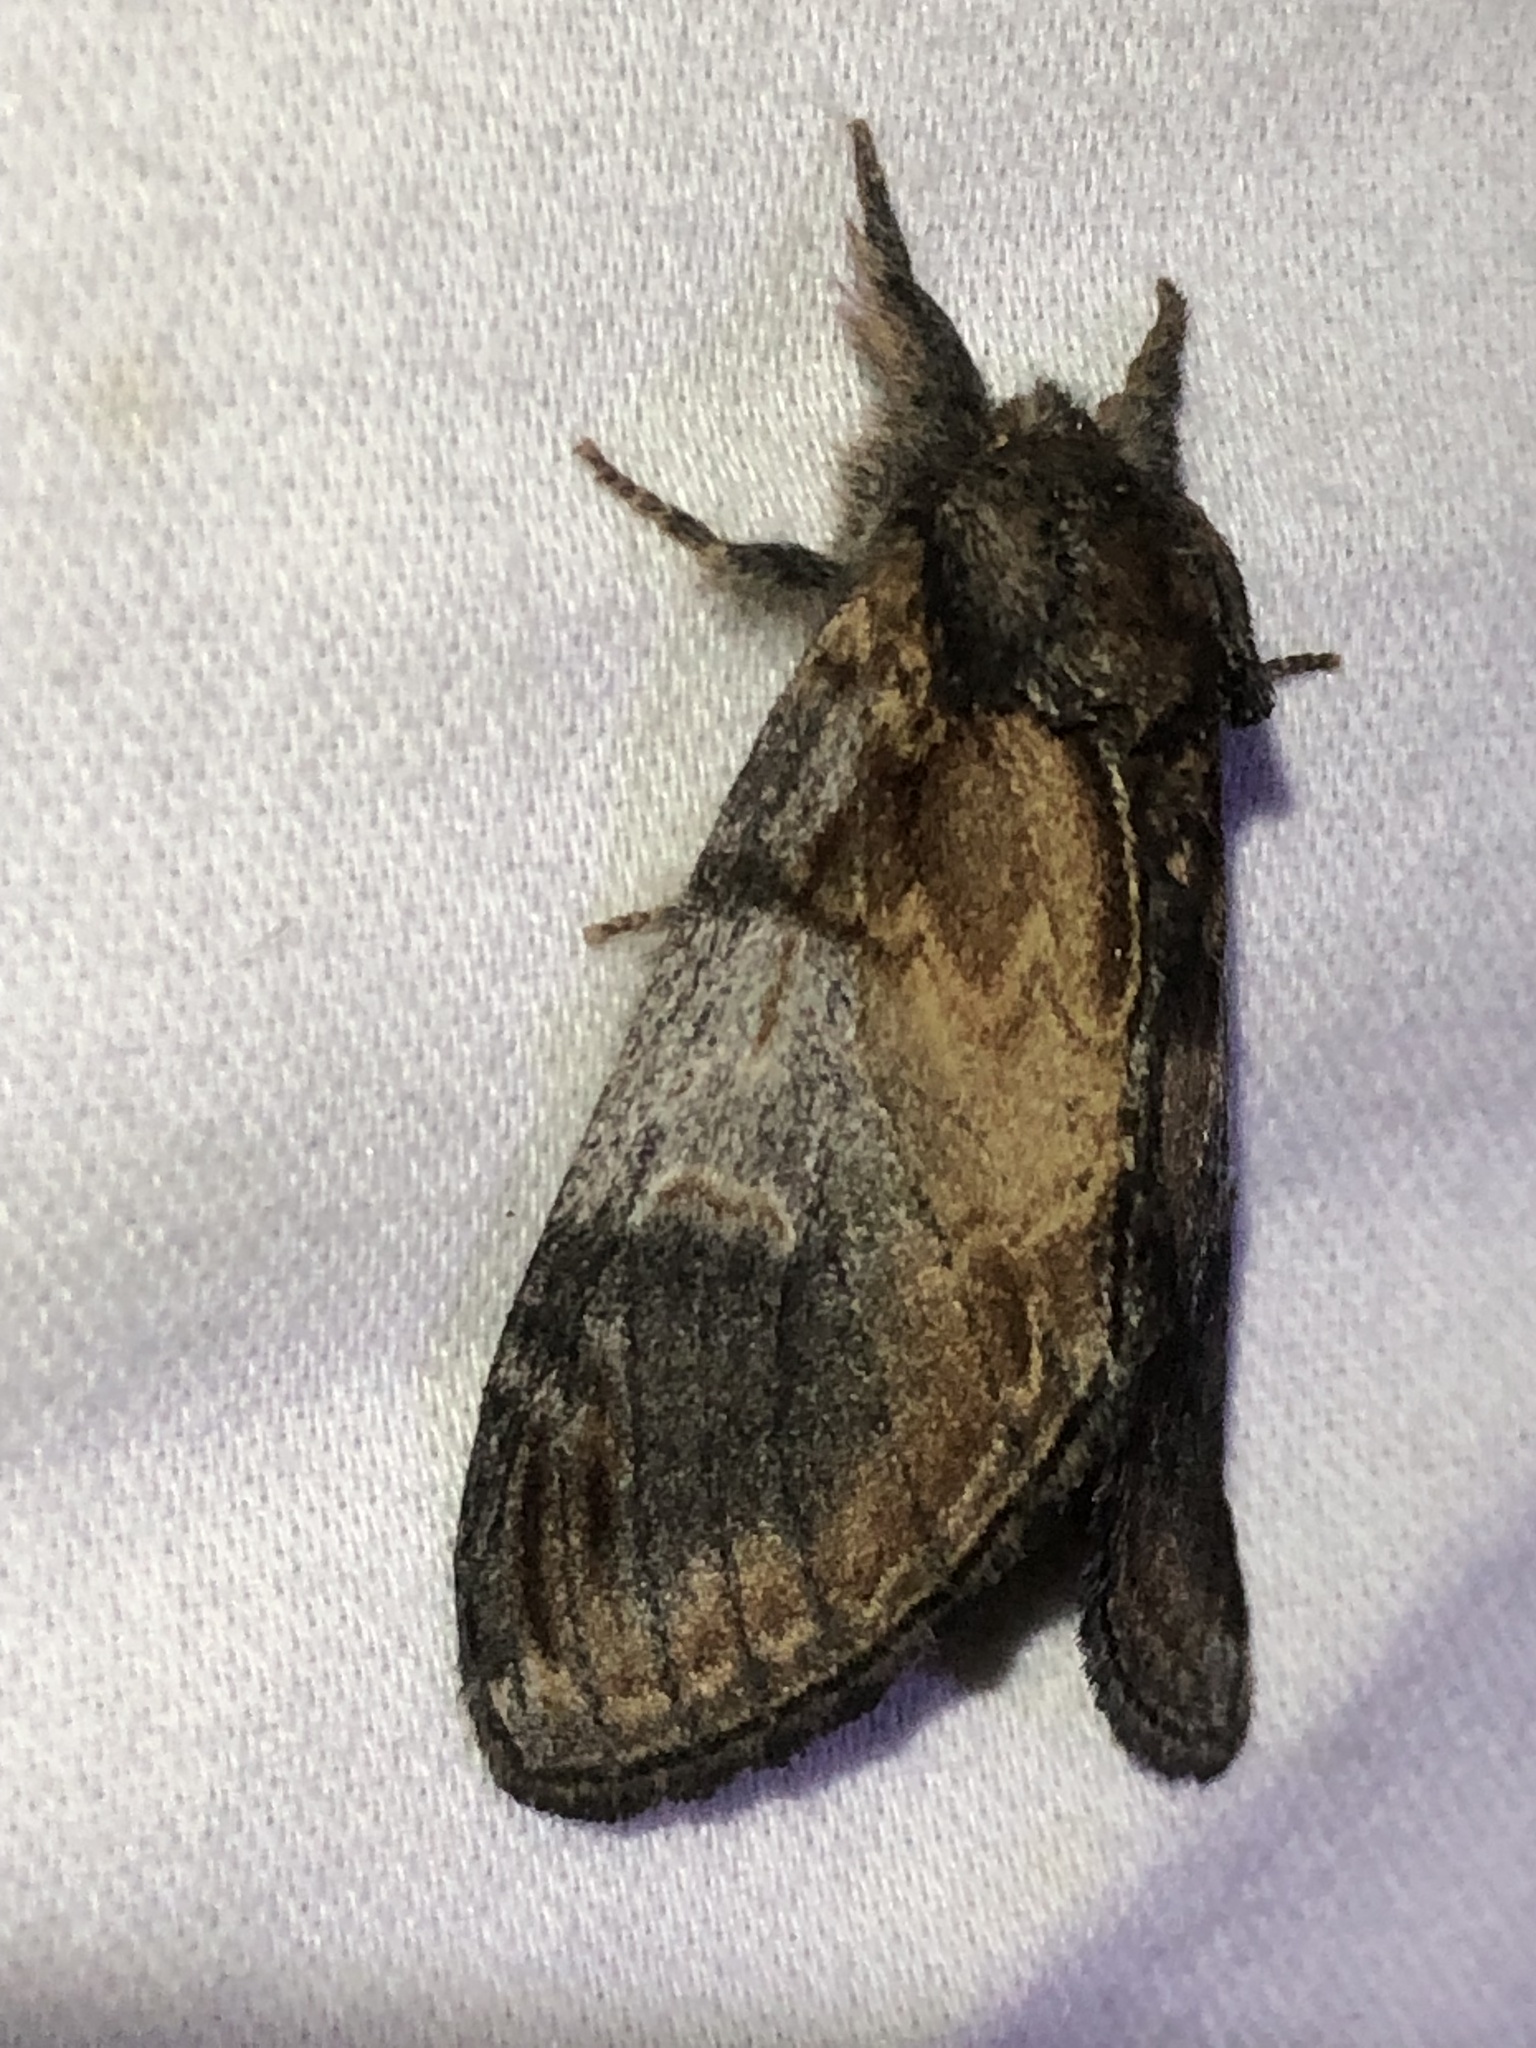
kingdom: Animalia
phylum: Arthropoda
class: Insecta
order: Lepidoptera
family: Notodontidae
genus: Notodonta
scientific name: Notodonta pacifica
